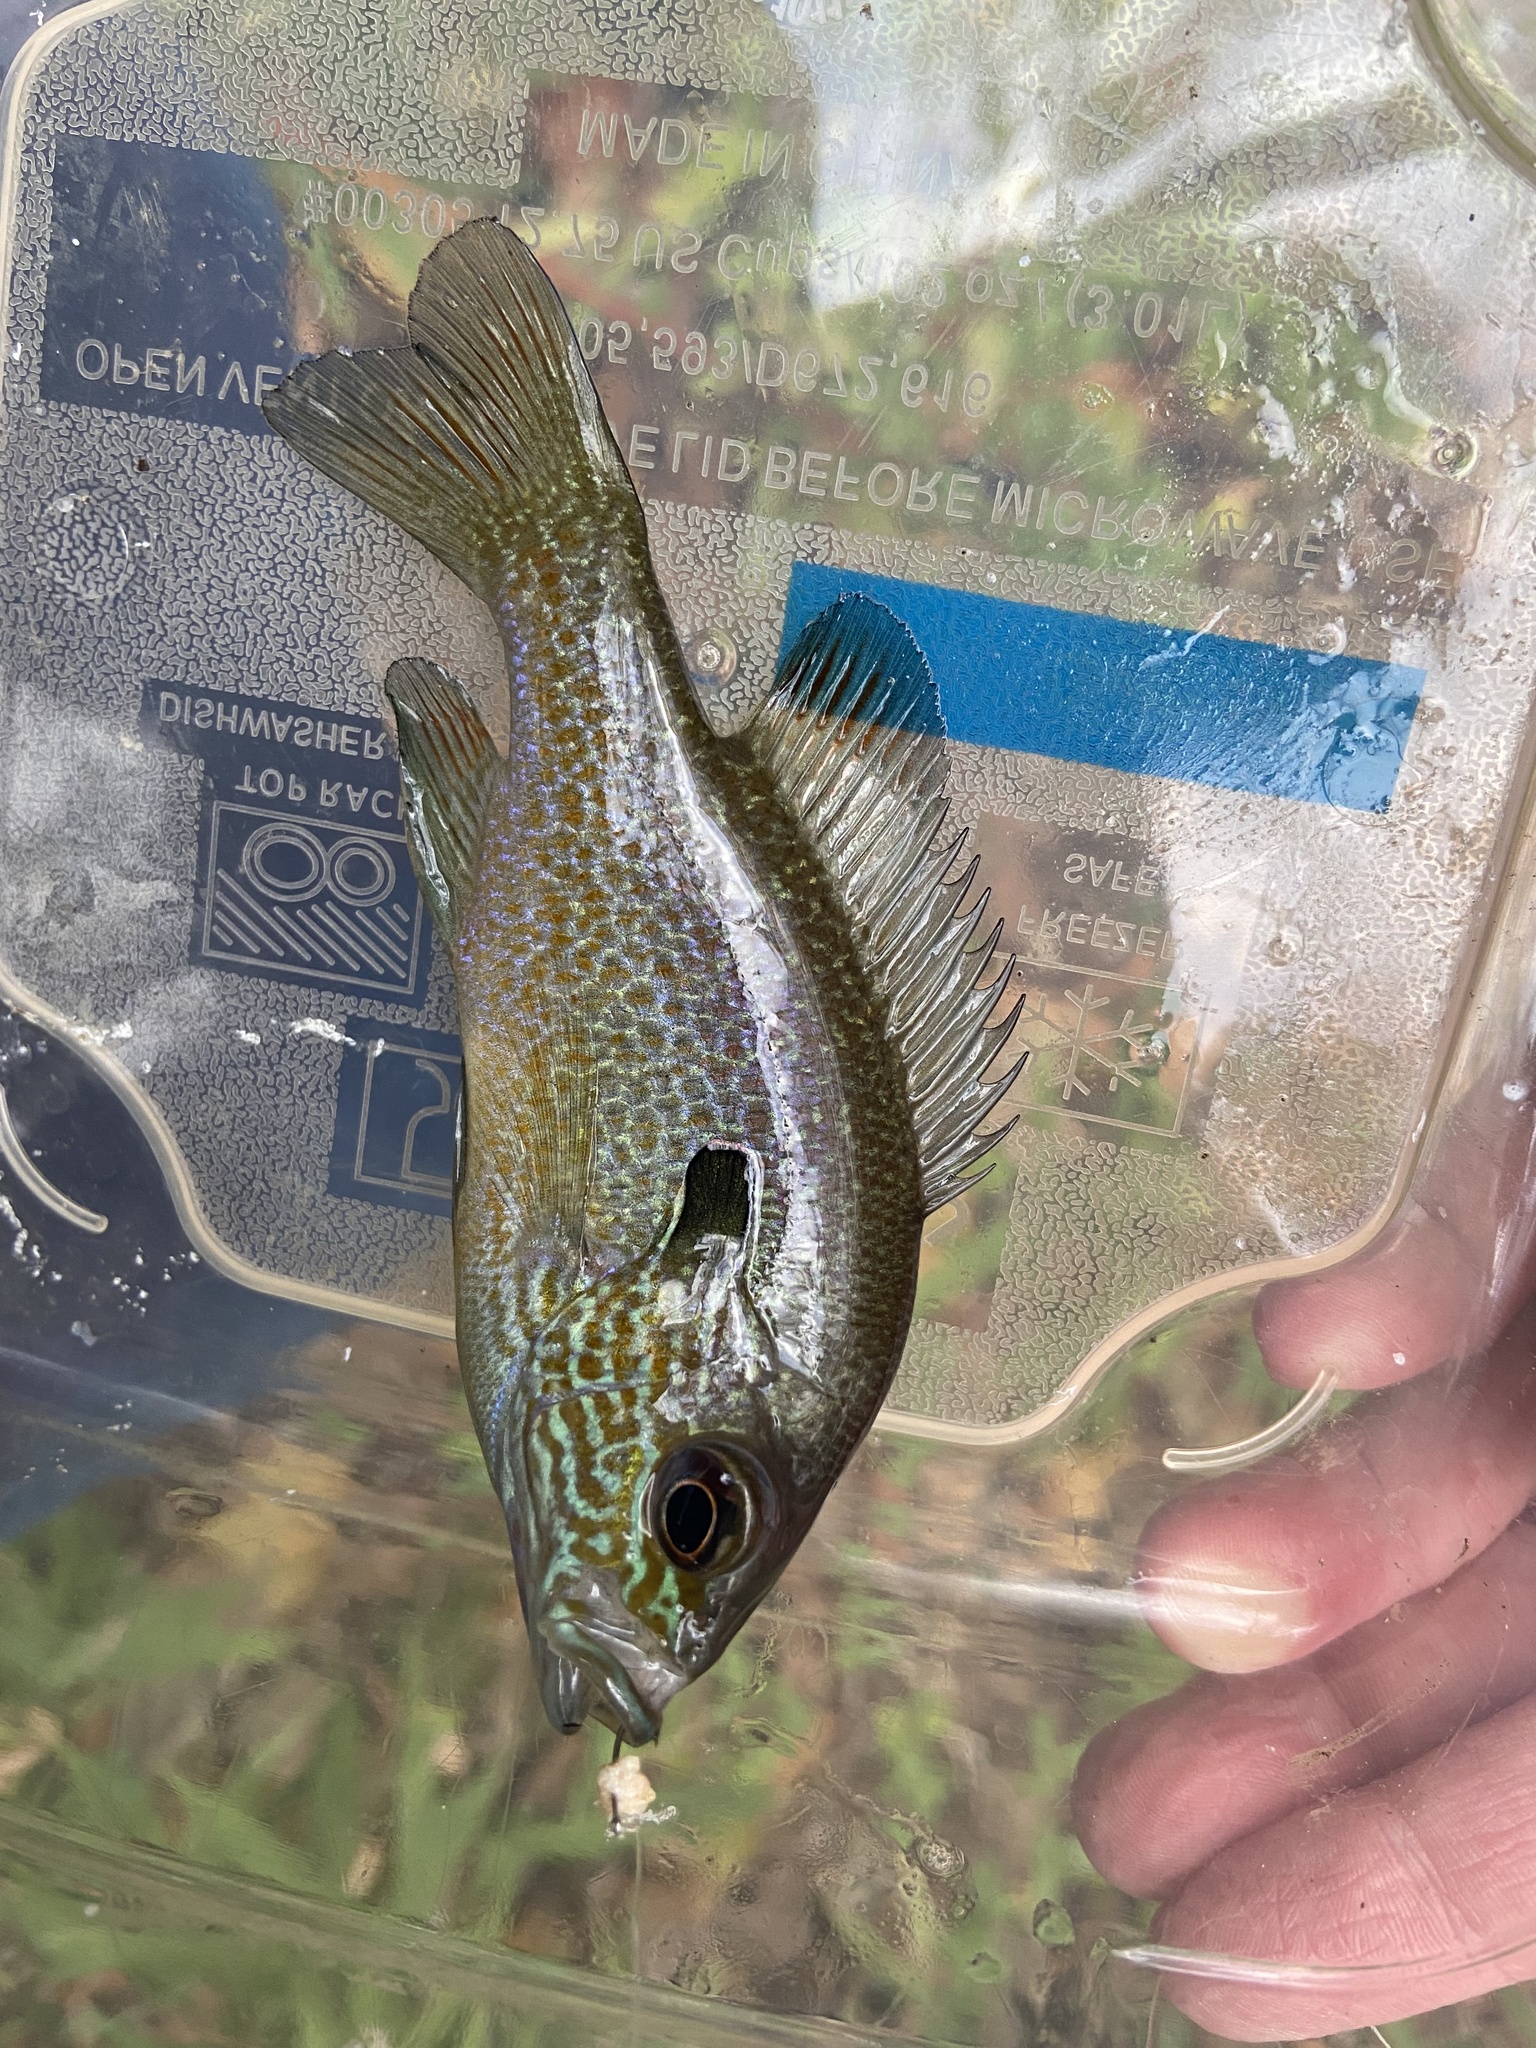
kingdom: Animalia
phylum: Chordata
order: Perciformes
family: Centrarchidae
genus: Lepomis
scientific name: Lepomis aquilensis
